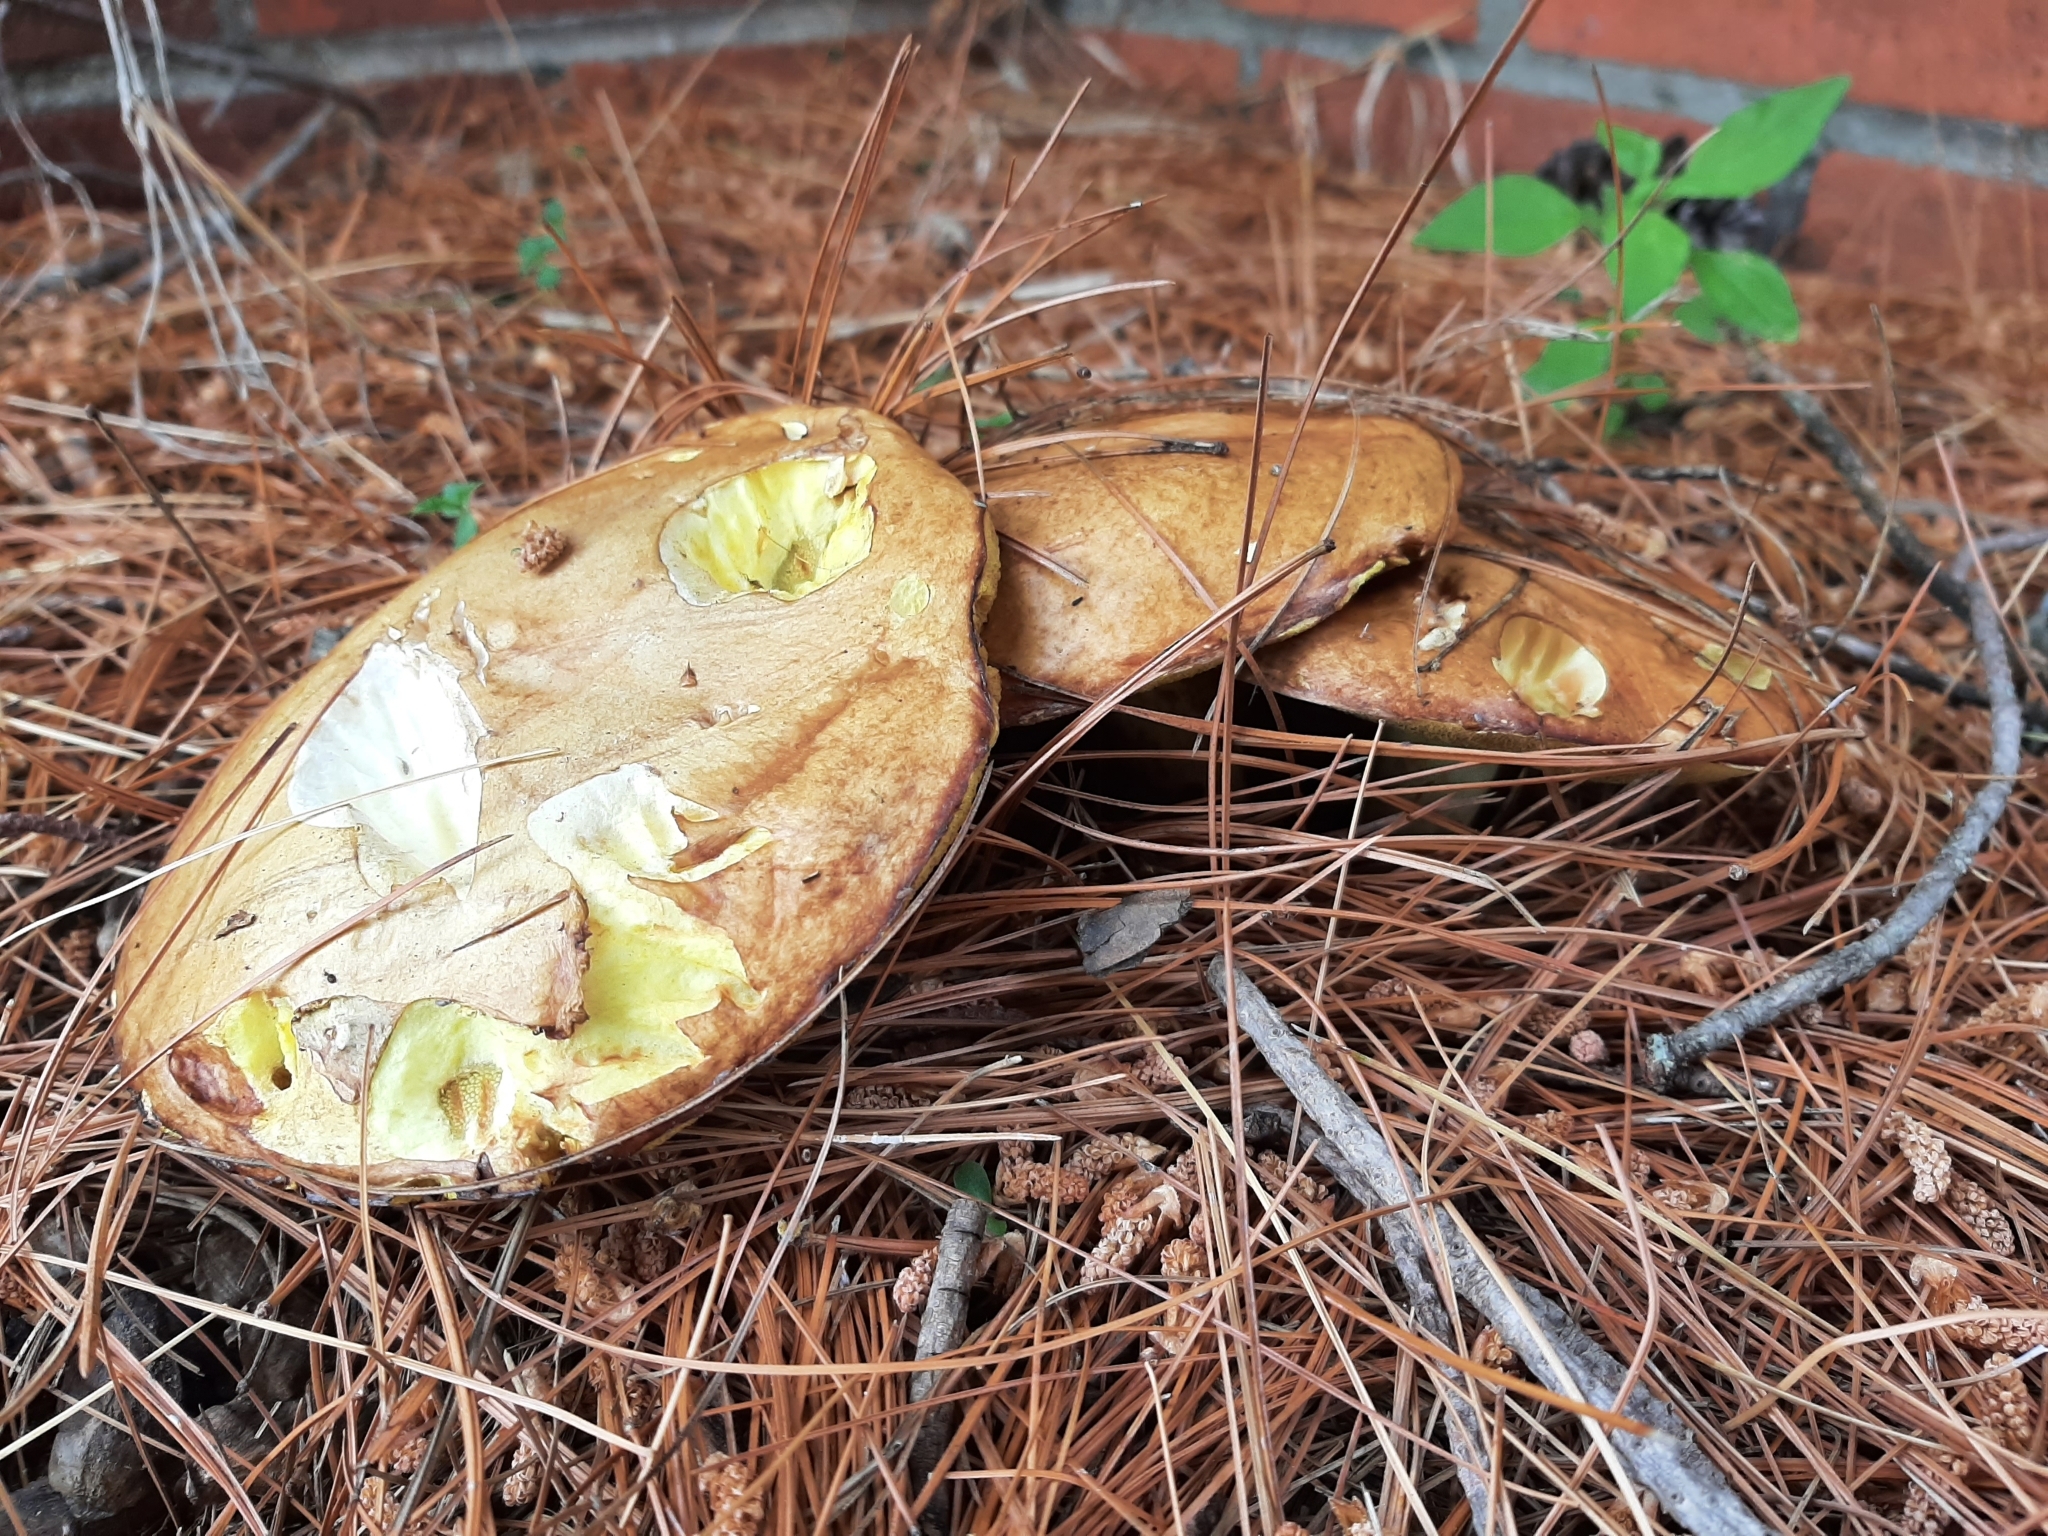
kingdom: Fungi
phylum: Basidiomycota
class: Agaricomycetes
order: Boletales
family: Suillaceae
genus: Suillus
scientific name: Suillus granulatus
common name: Weeping bolete
